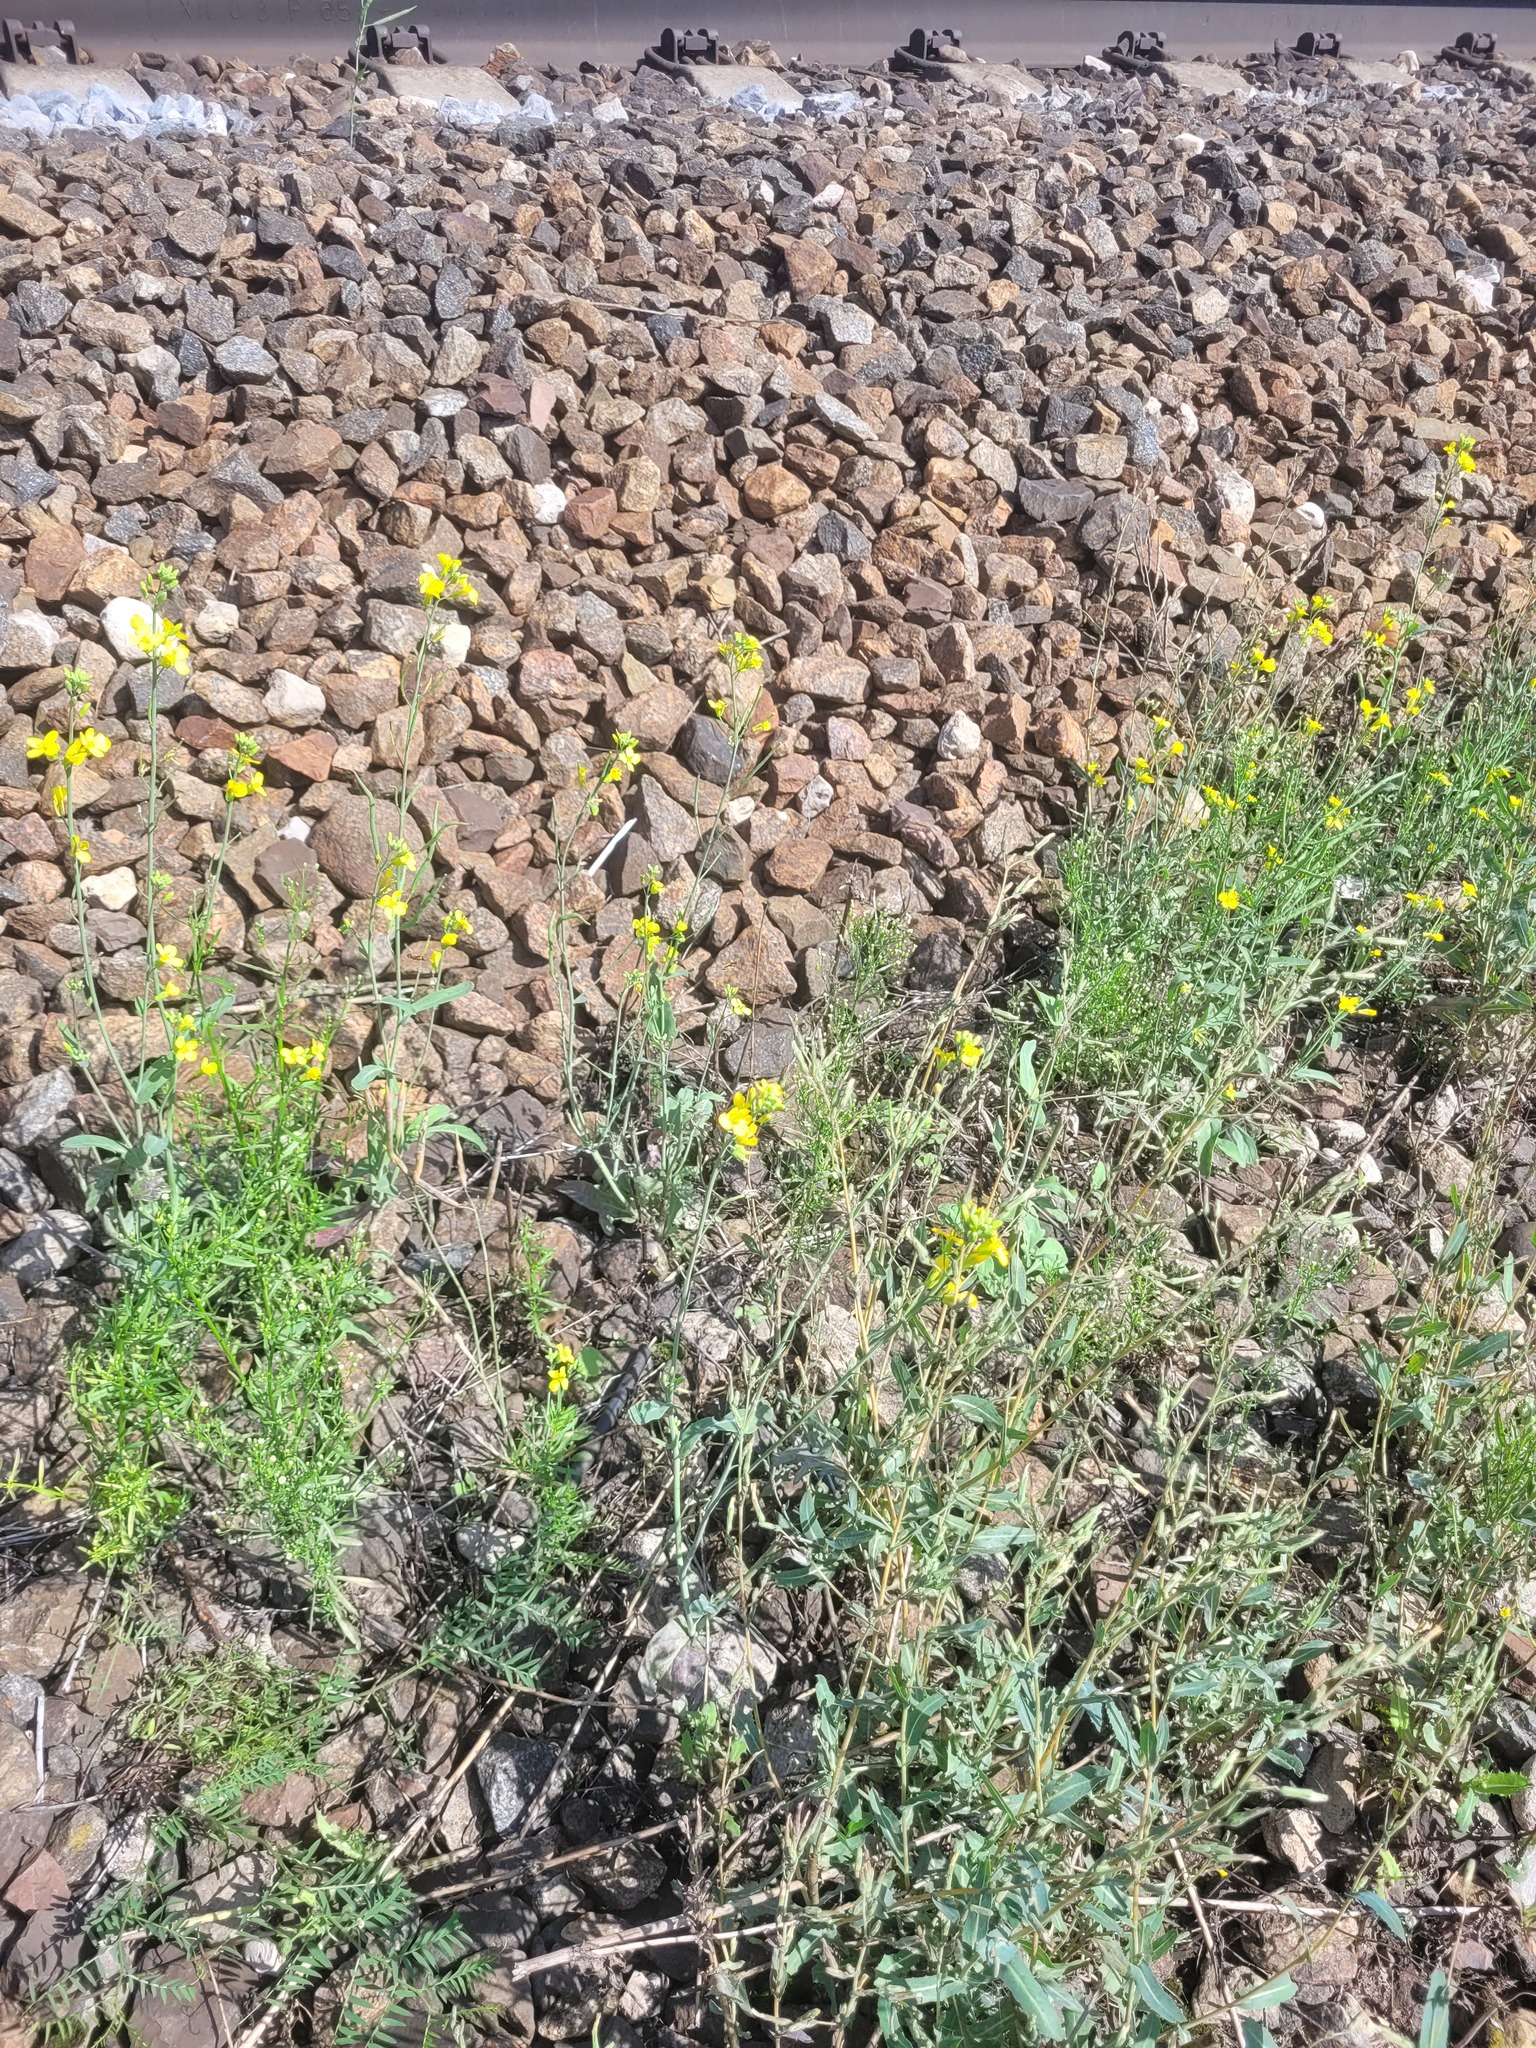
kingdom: Plantae
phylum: Tracheophyta
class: Magnoliopsida
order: Brassicales
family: Brassicaceae
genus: Brassica
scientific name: Brassica napus
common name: Rape
